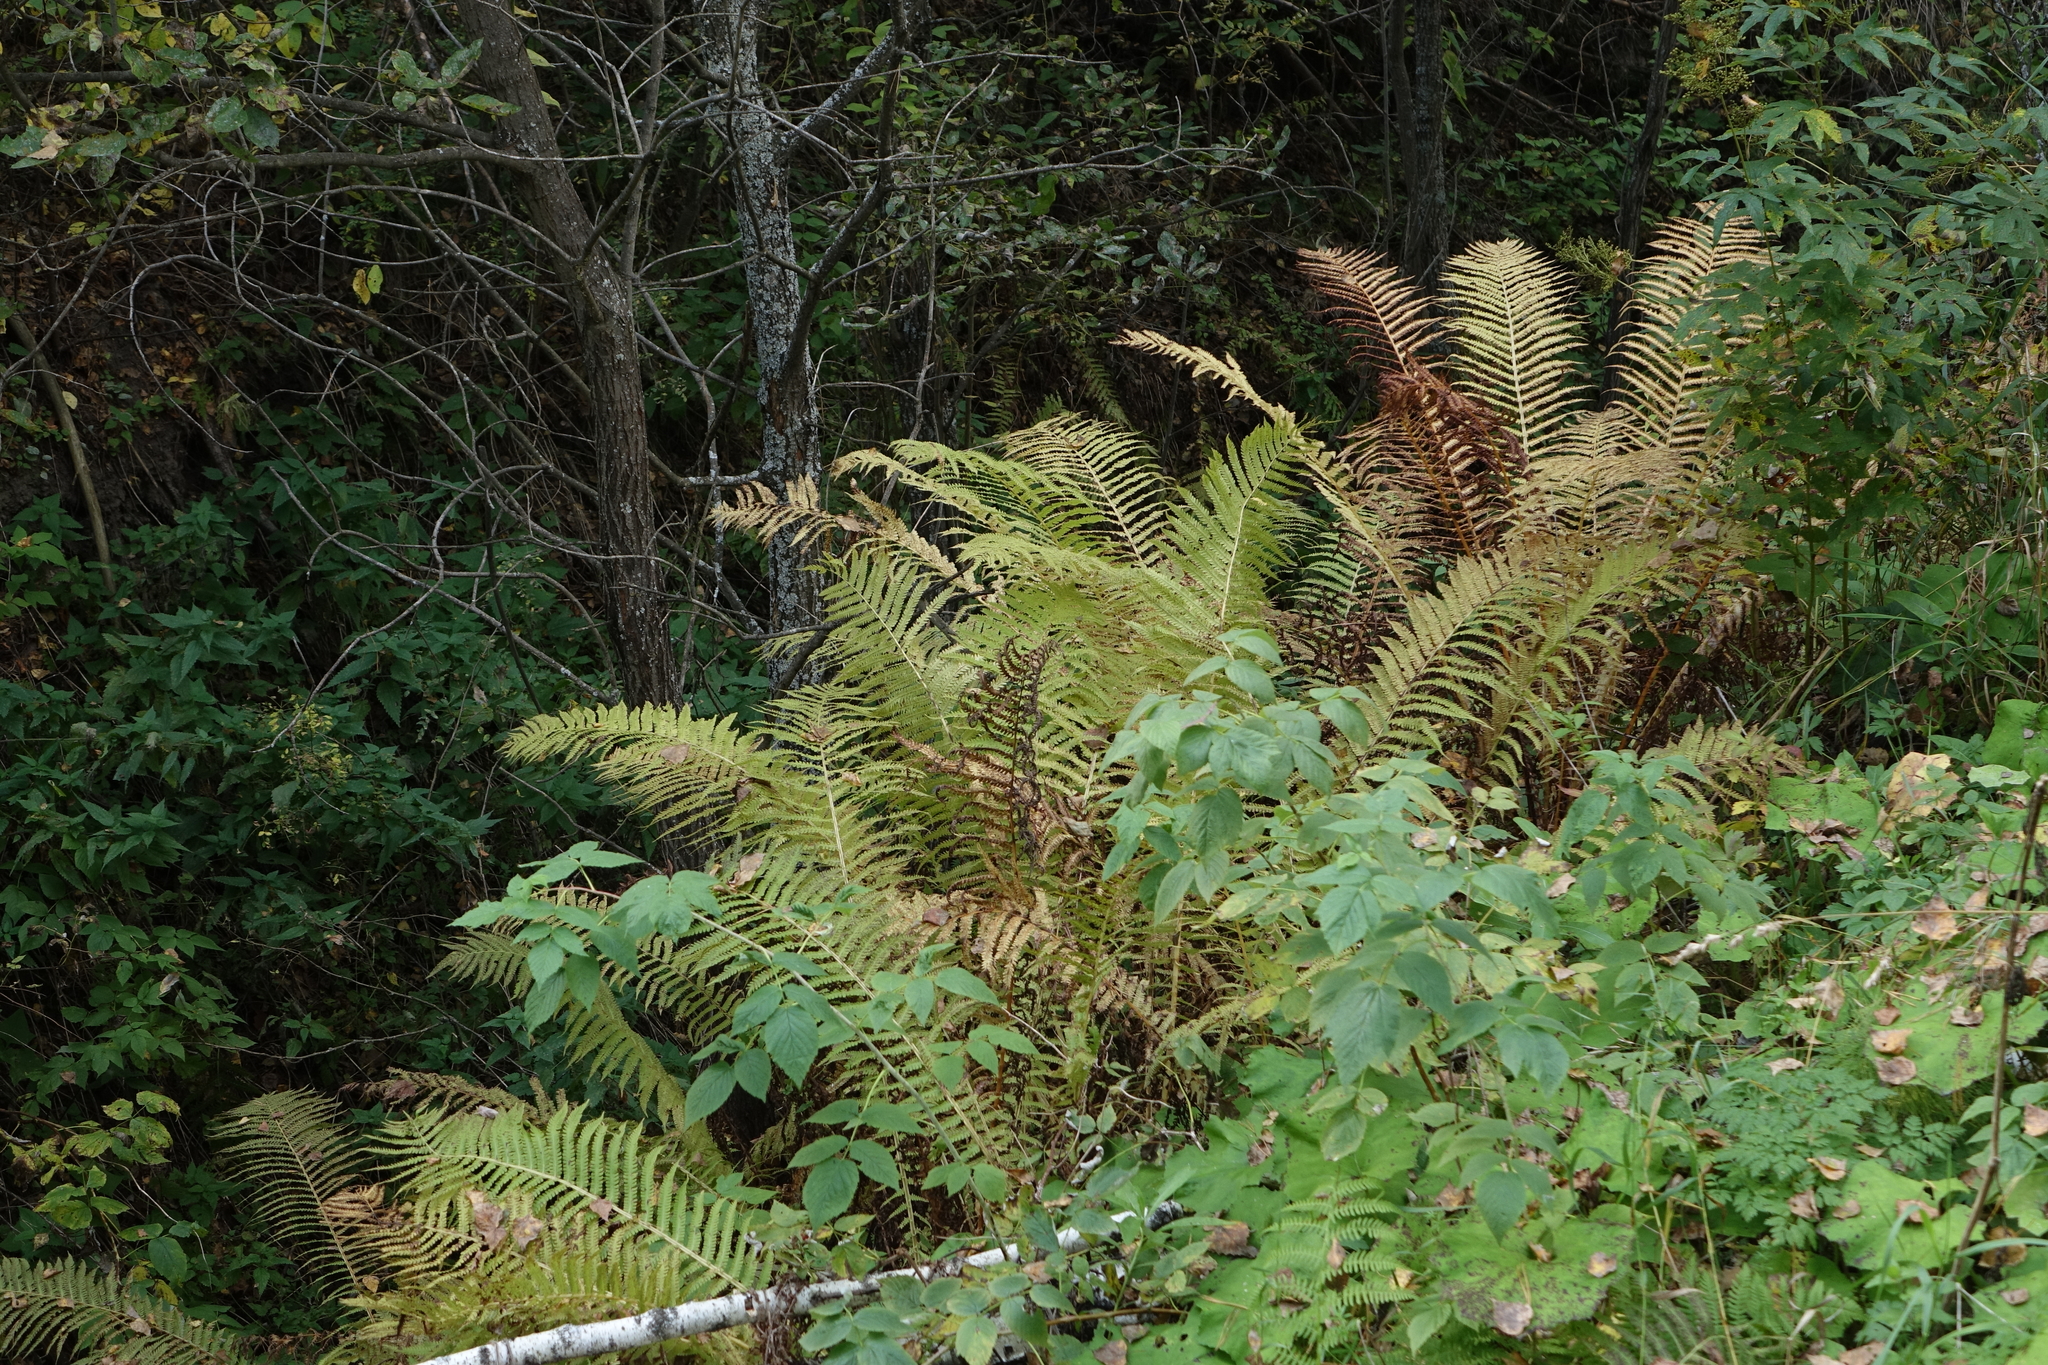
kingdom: Plantae
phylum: Tracheophyta
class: Polypodiopsida
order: Polypodiales
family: Onocleaceae
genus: Matteuccia
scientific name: Matteuccia struthiopteris
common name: Ostrich fern
